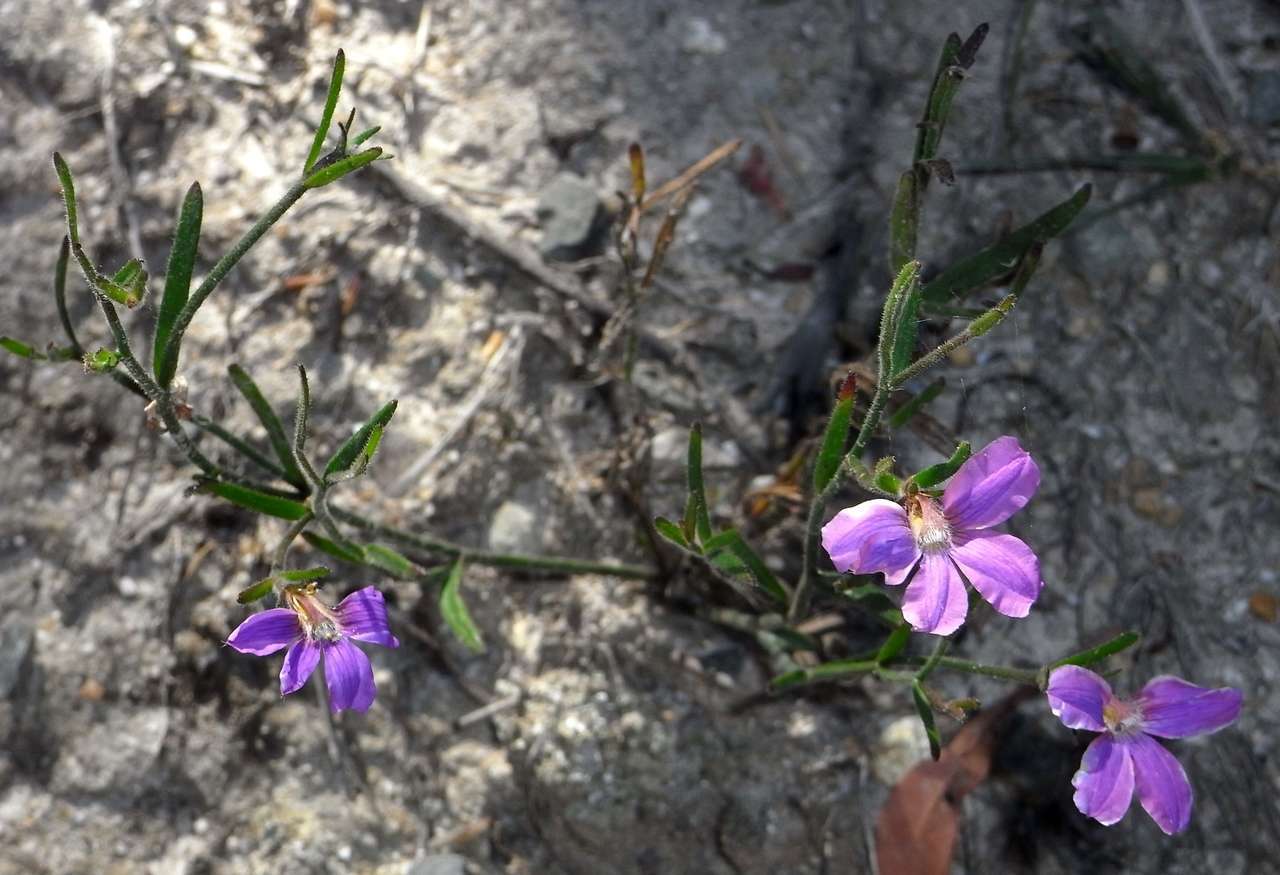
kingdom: Plantae
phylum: Tracheophyta
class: Magnoliopsida
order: Asterales
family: Goodeniaceae
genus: Scaevola
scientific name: Scaevola ramosissima
